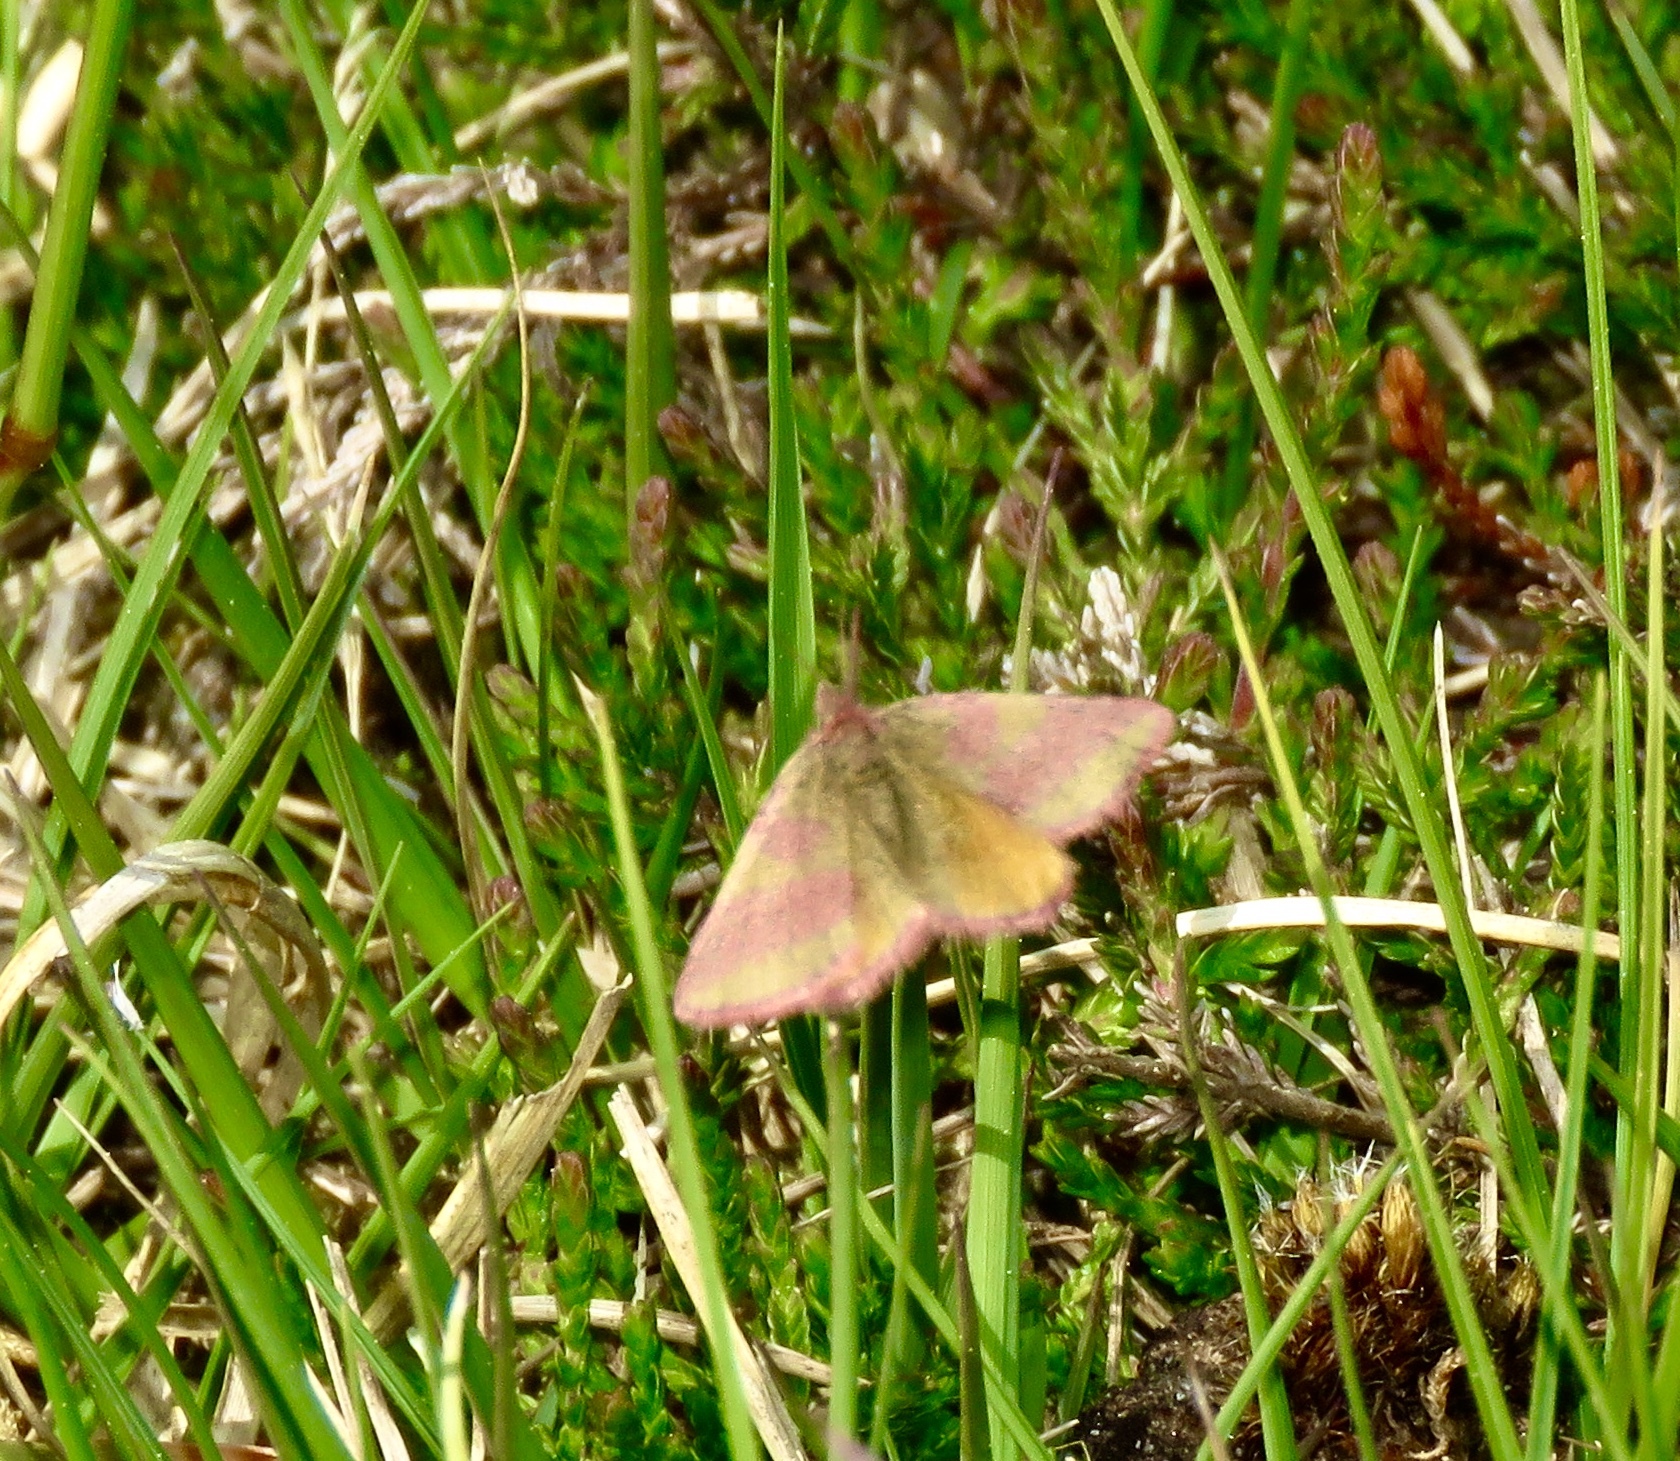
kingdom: Animalia
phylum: Arthropoda
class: Insecta
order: Lepidoptera
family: Geometridae
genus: Lythria
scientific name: Lythria cruentaria
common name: Purple-barred yellow
